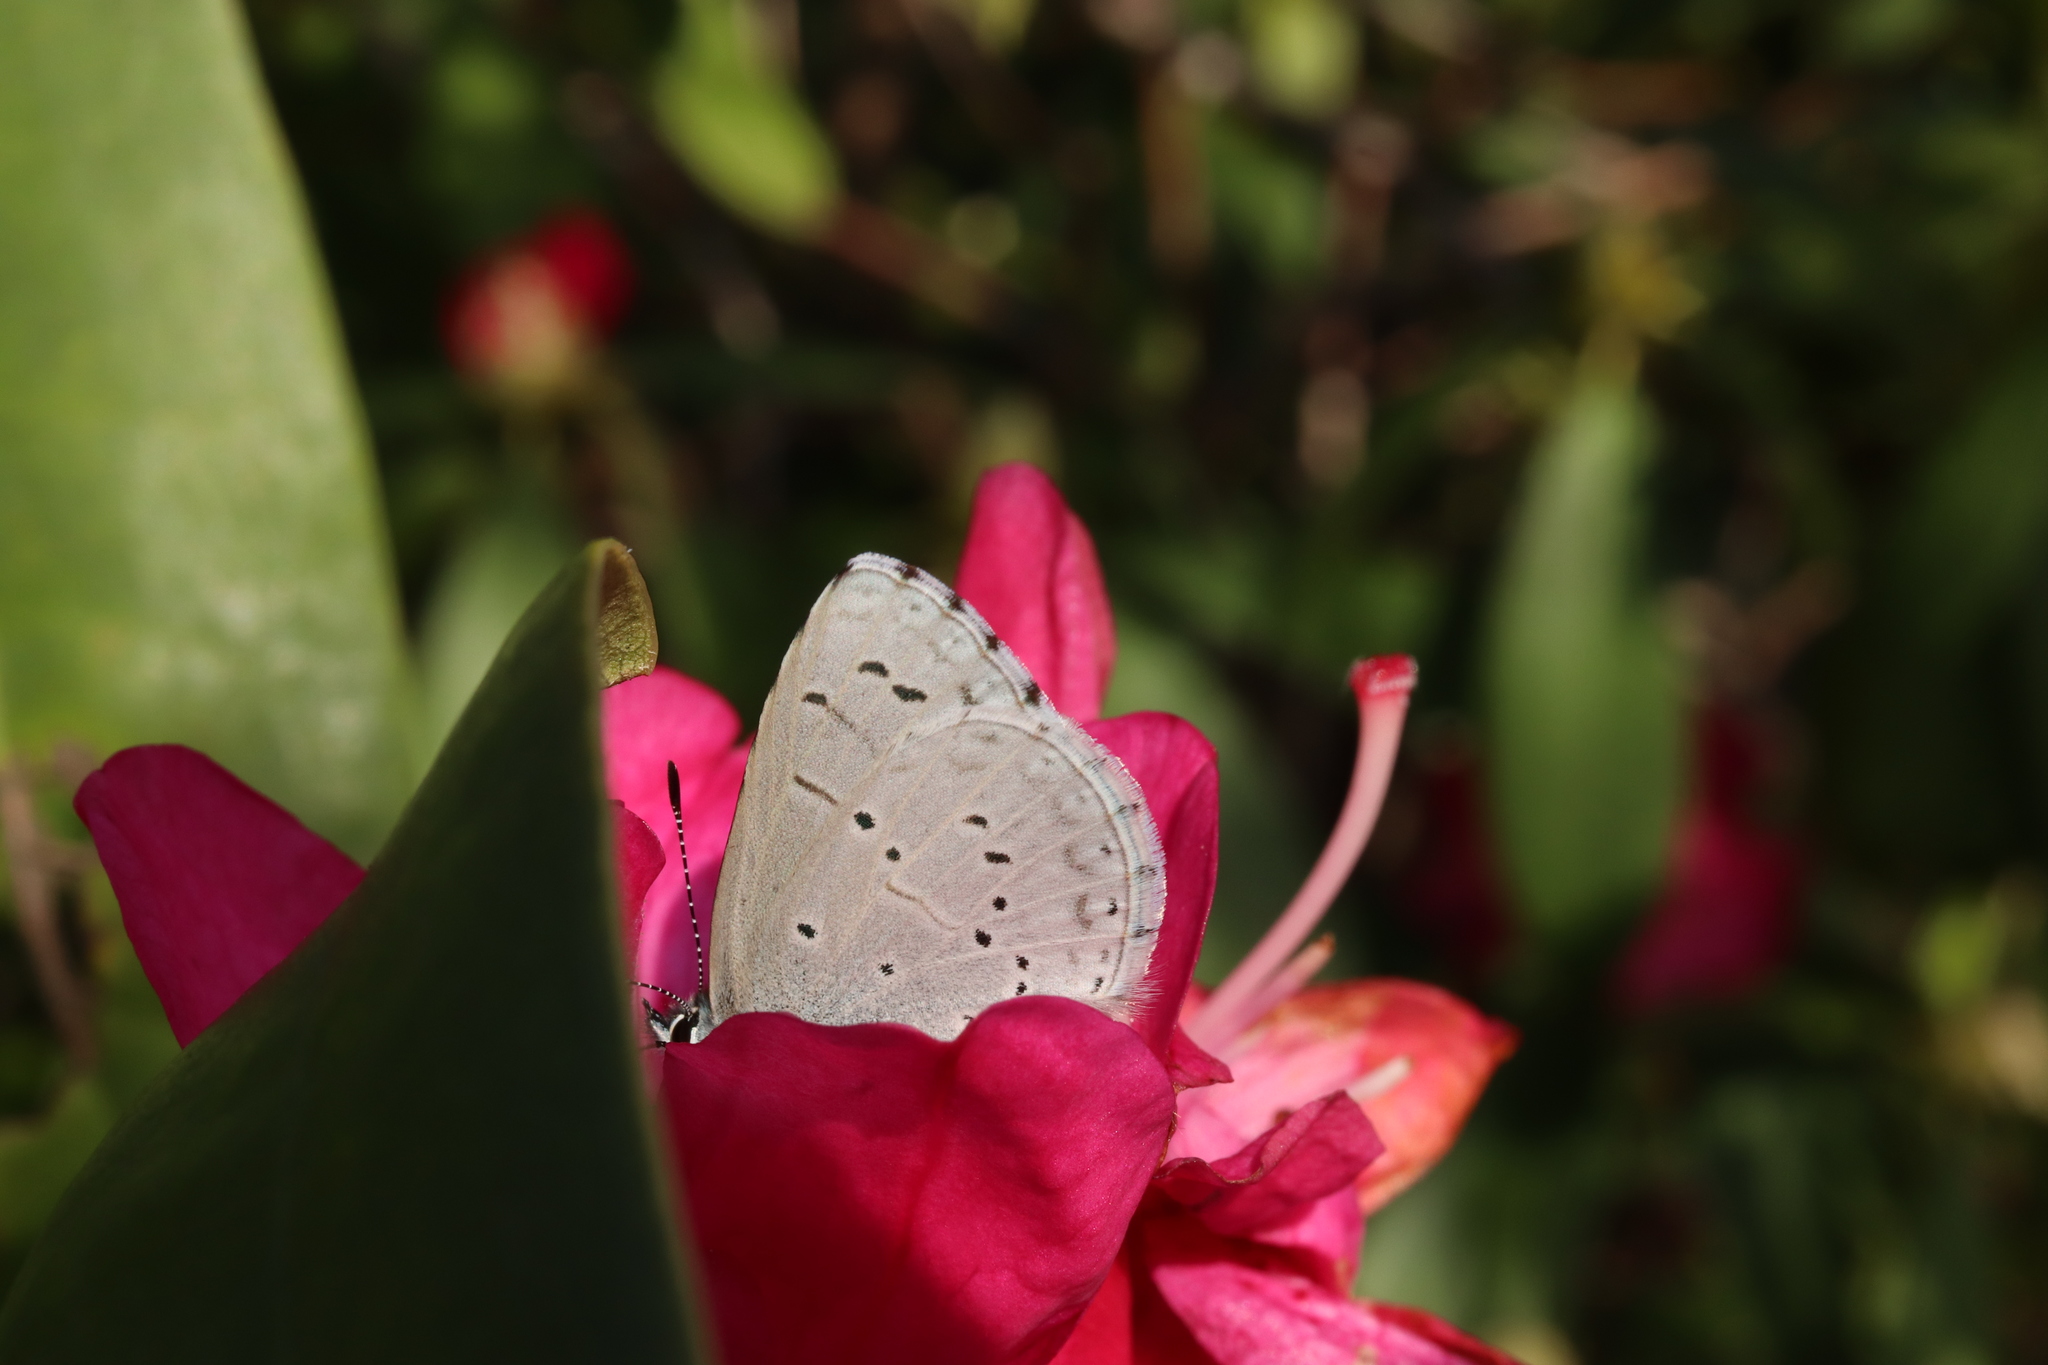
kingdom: Animalia
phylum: Arthropoda
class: Insecta
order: Lepidoptera
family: Lycaenidae
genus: Celastrina
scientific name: Celastrina argiolus
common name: Holly blue
